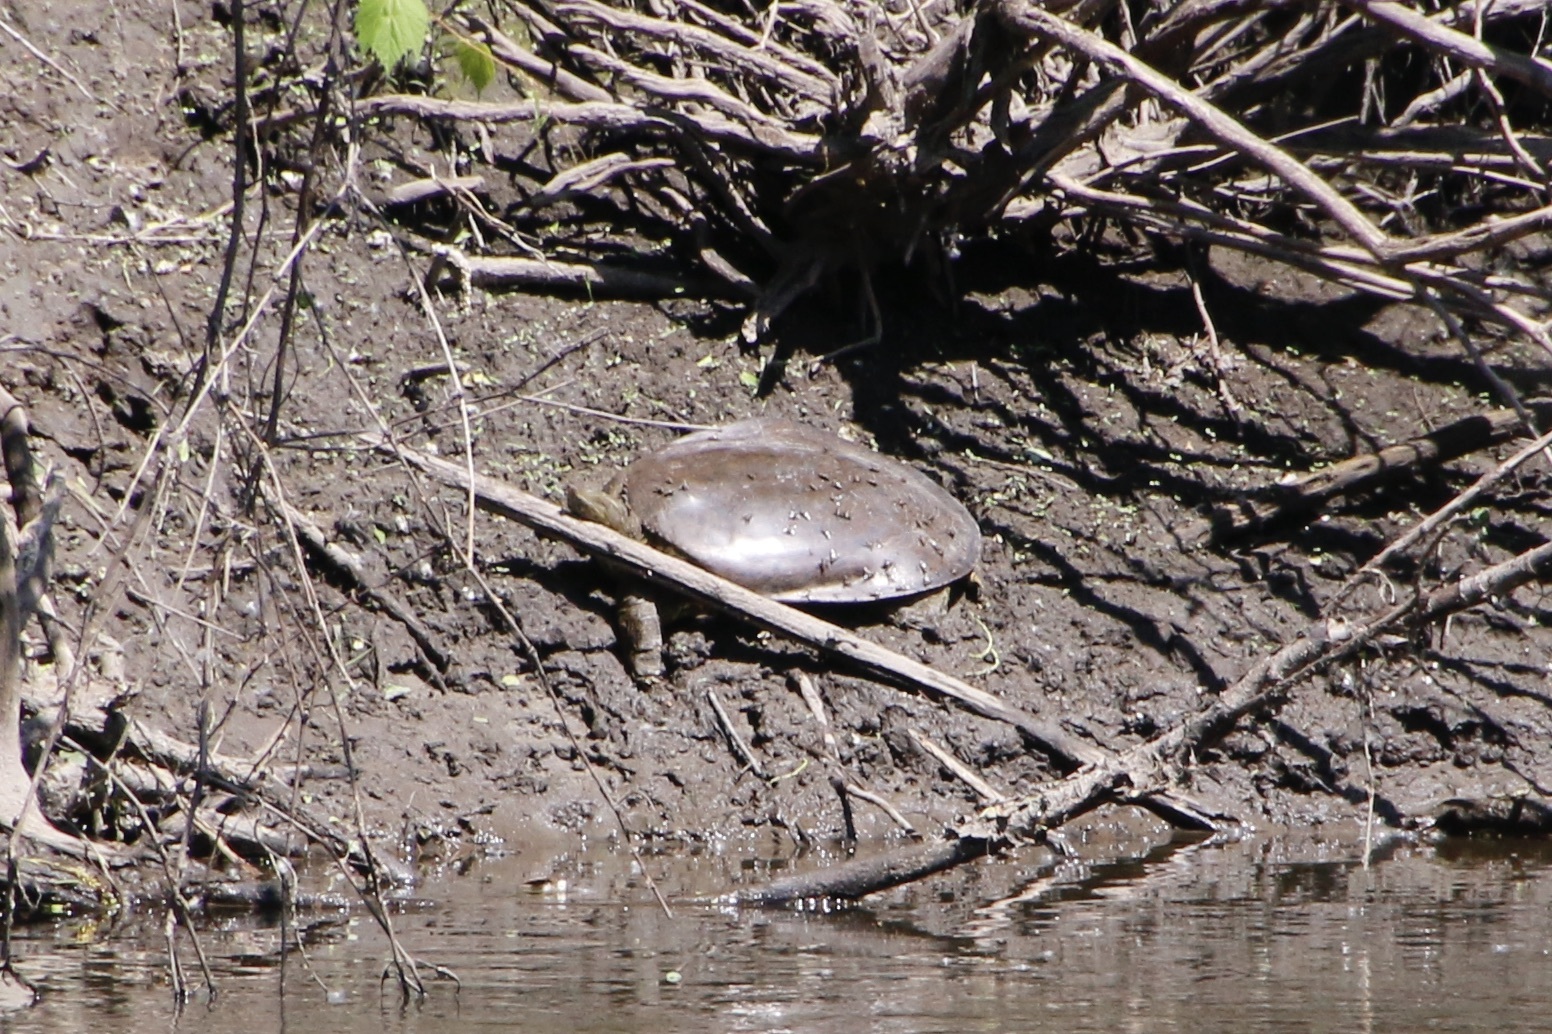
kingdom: Animalia
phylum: Chordata
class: Testudines
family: Trionychidae
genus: Apalone
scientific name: Apalone spinifera
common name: Spiny softshell turtle
